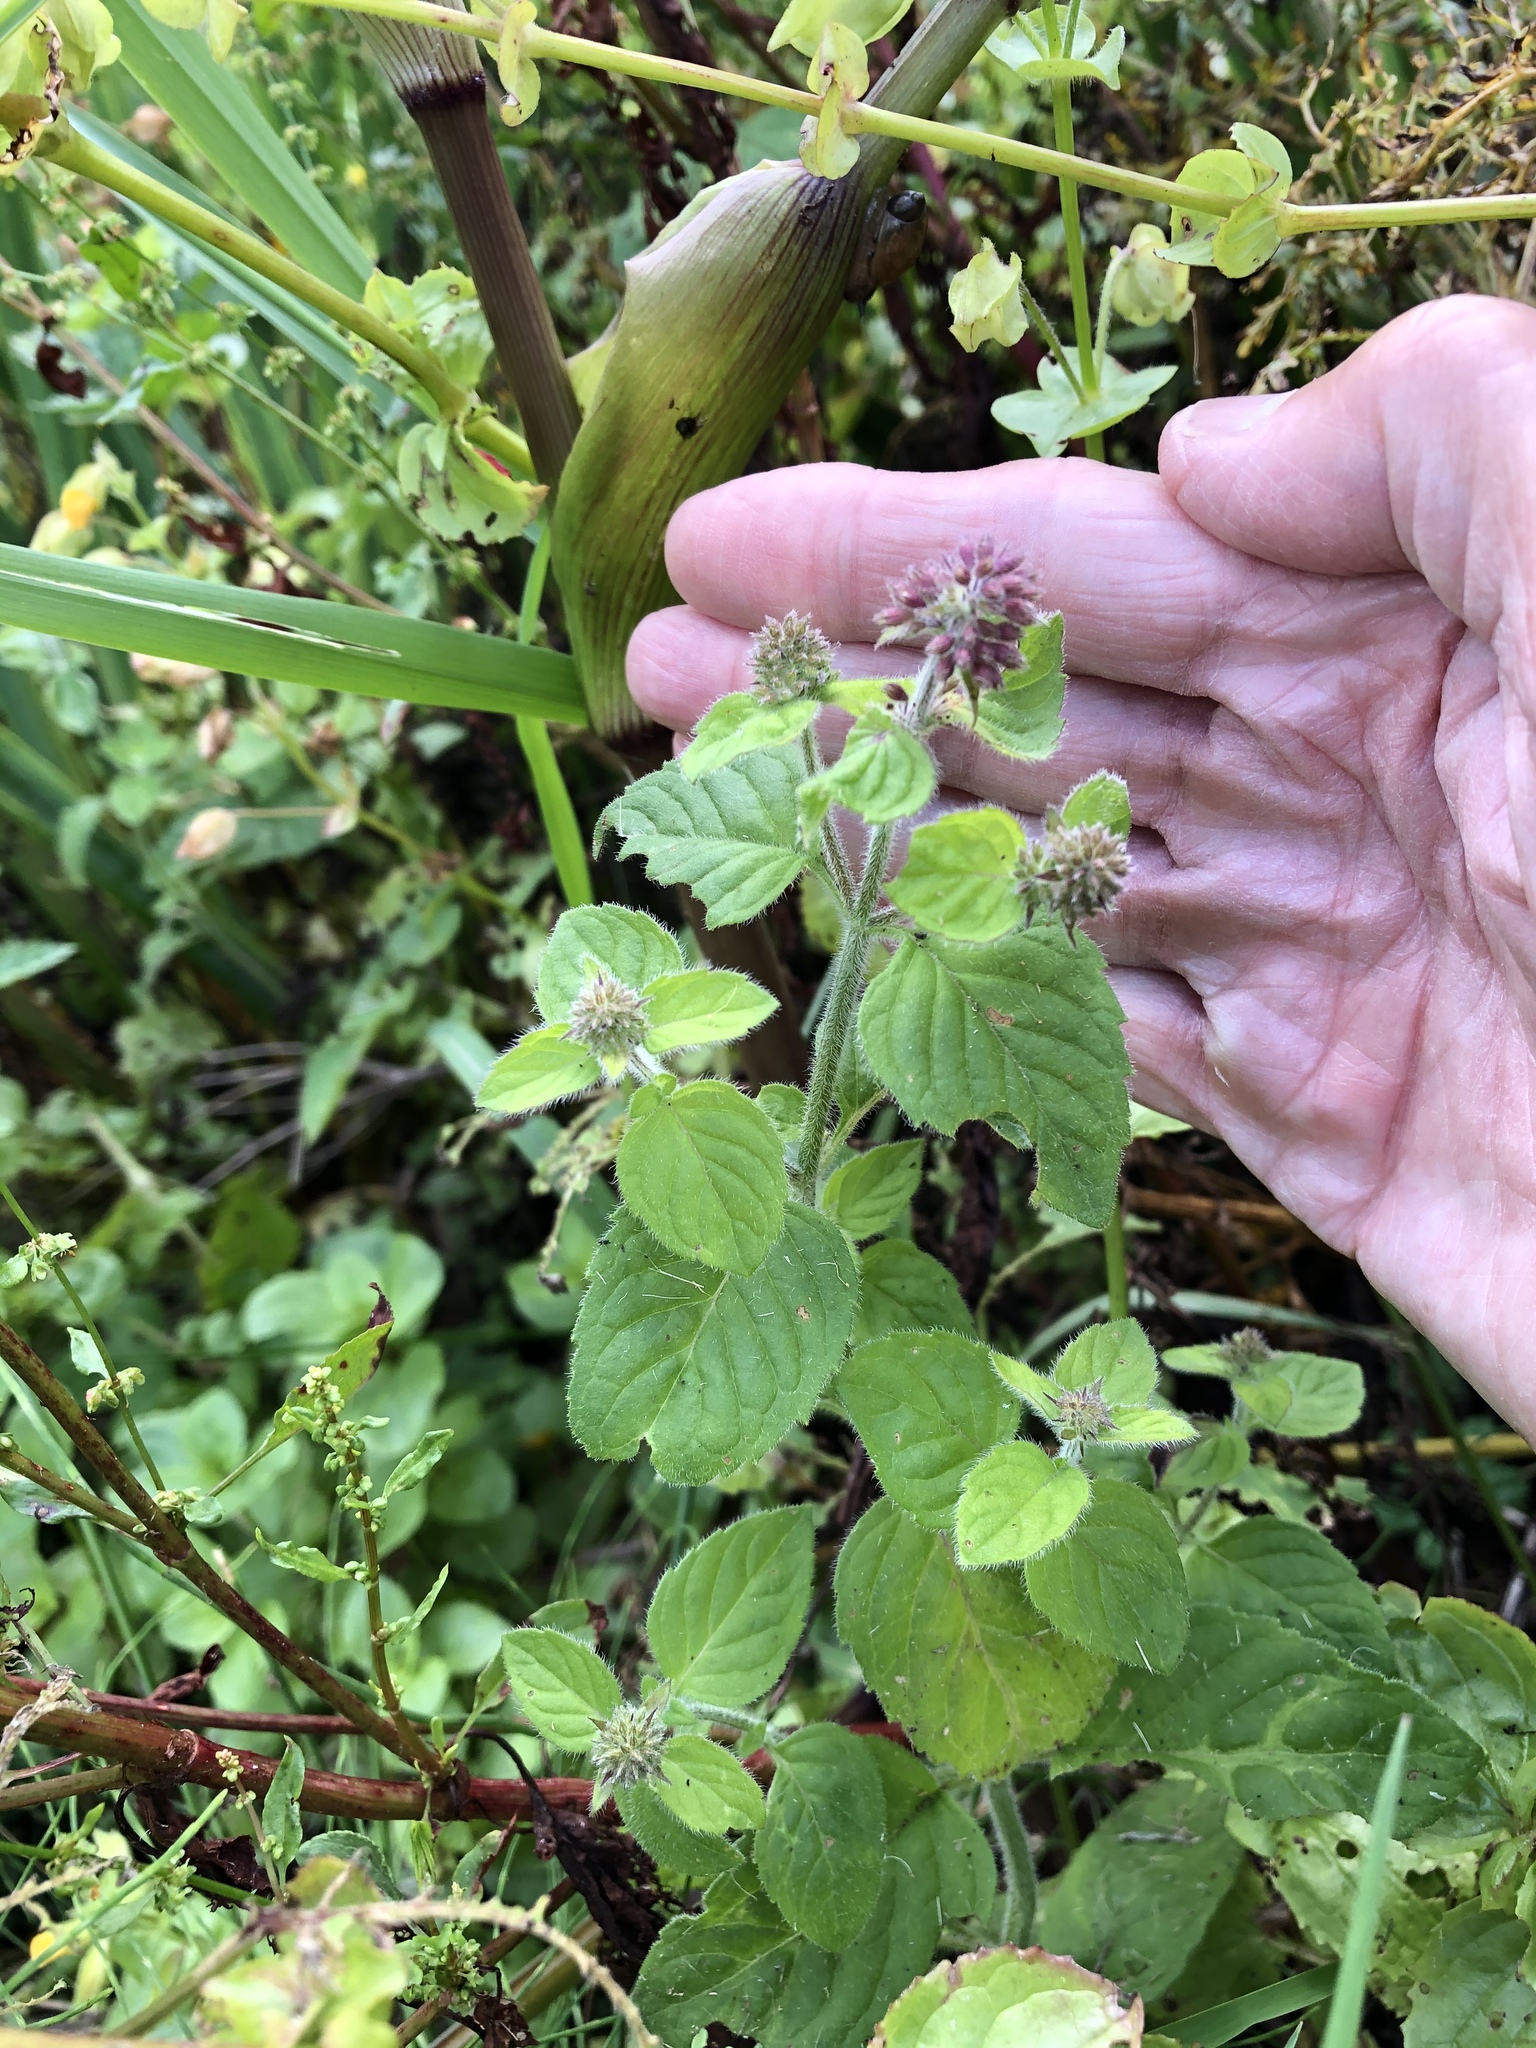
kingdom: Plantae
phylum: Tracheophyta
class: Magnoliopsida
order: Lamiales
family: Lamiaceae
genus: Mentha
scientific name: Mentha aquatica
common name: Water mint
